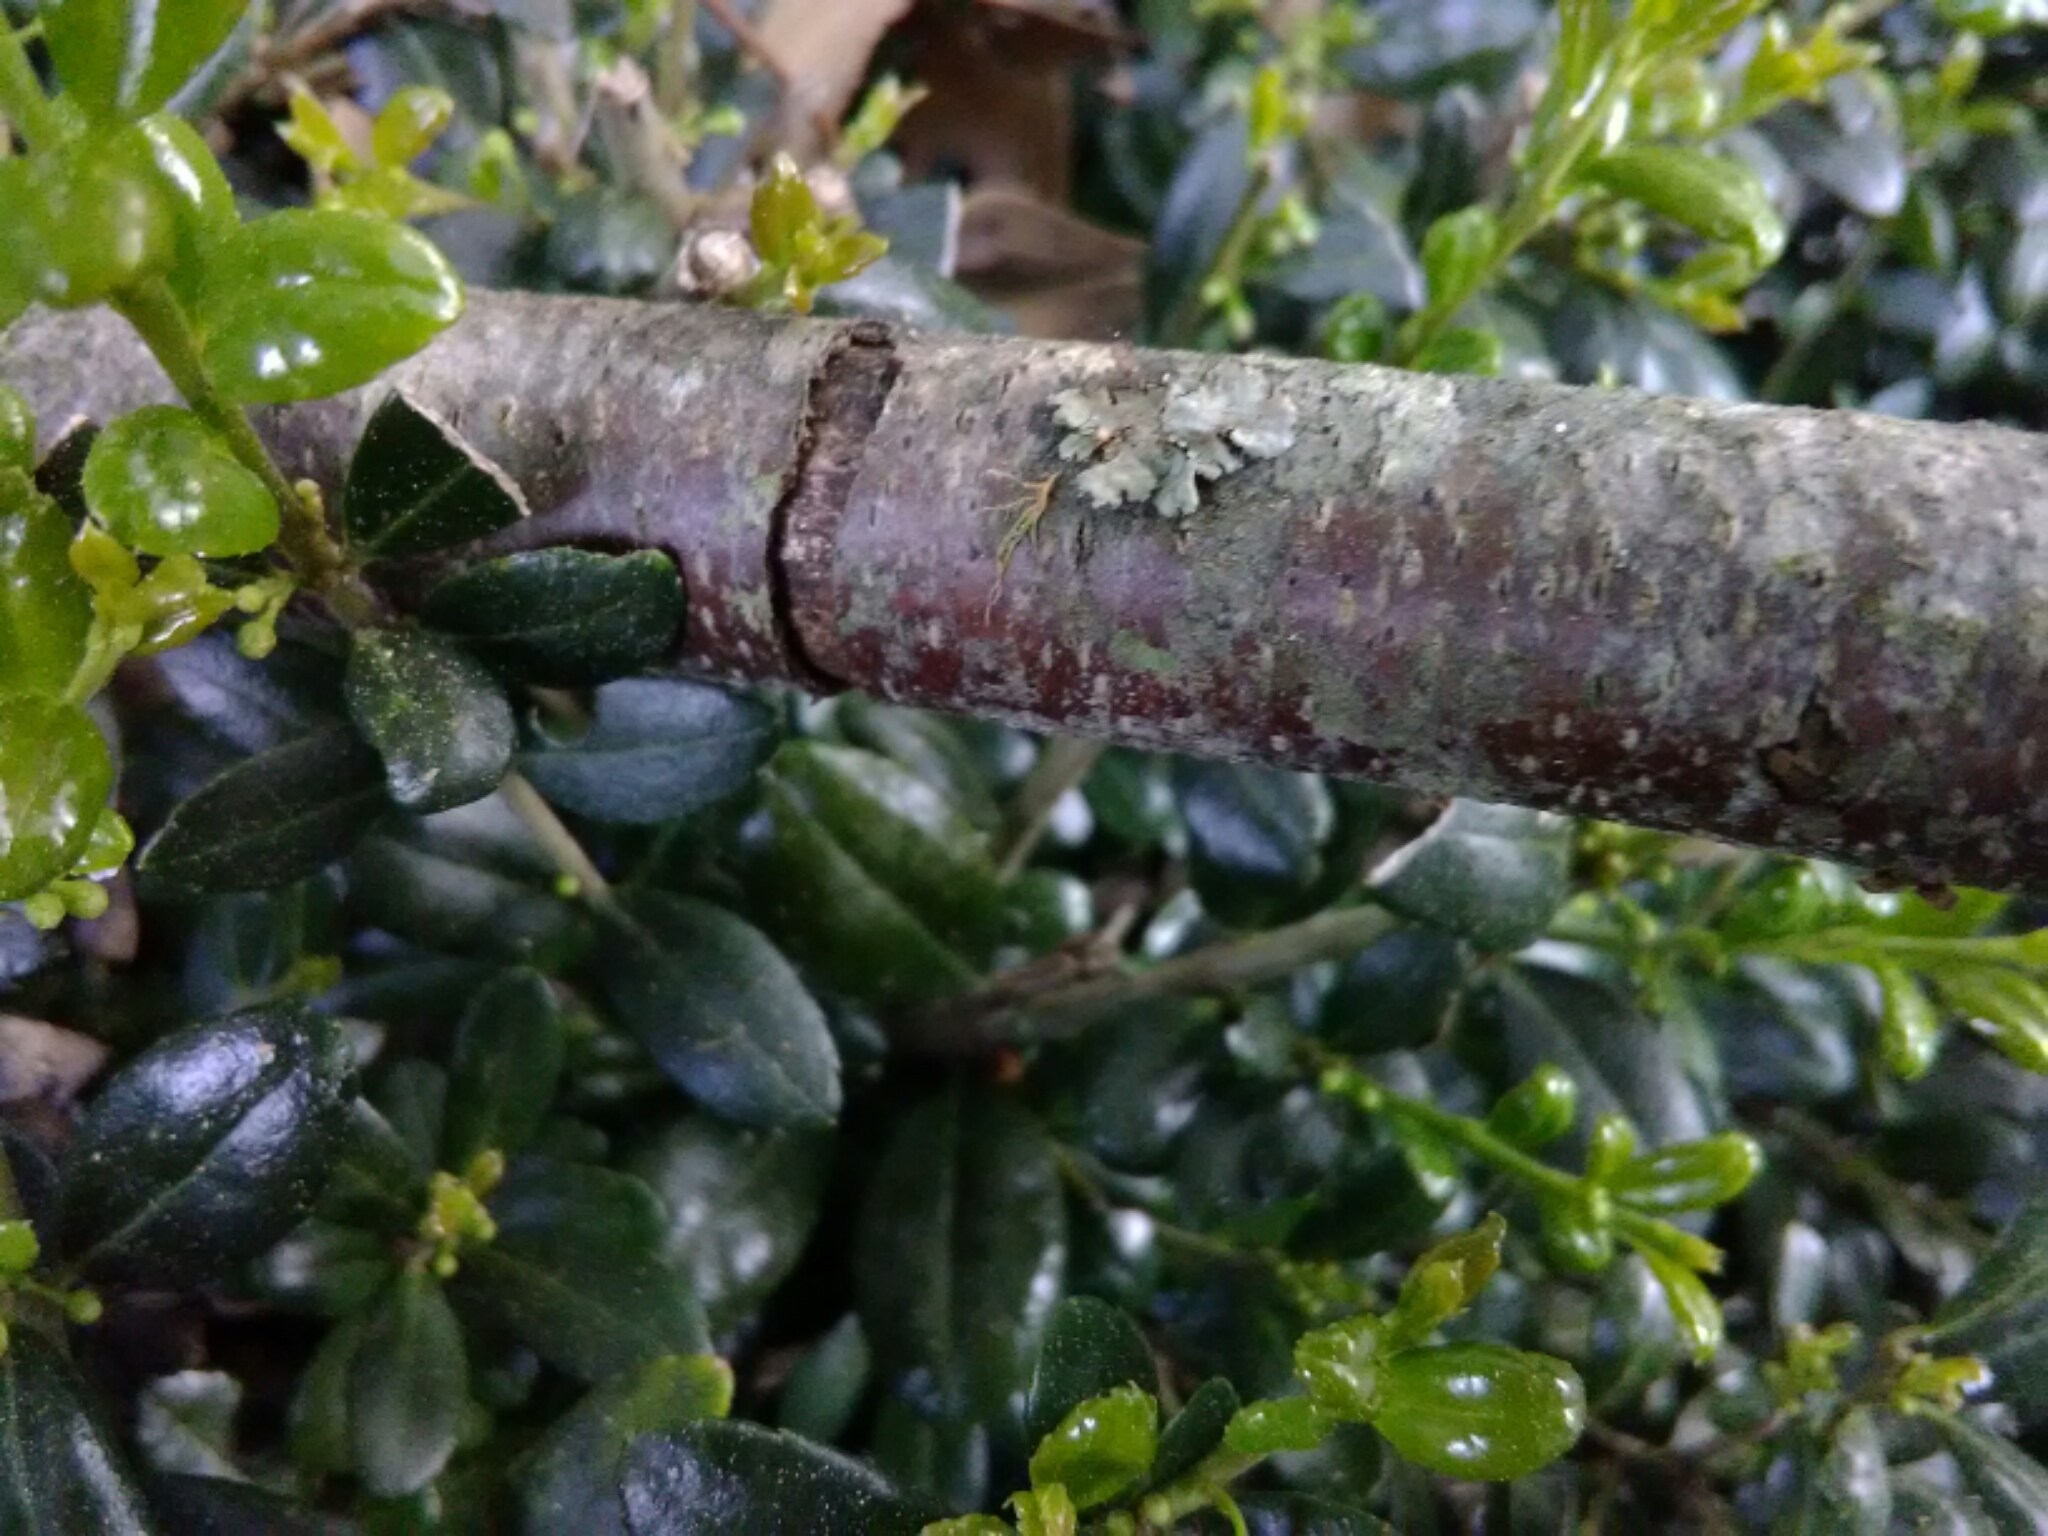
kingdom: Fungi
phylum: Ascomycota
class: Lecanoromycetes
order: Lecanorales
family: Parmeliaceae
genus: Parmotrema
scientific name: Parmotrema hypotropum
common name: Powdered ruffle lichen
